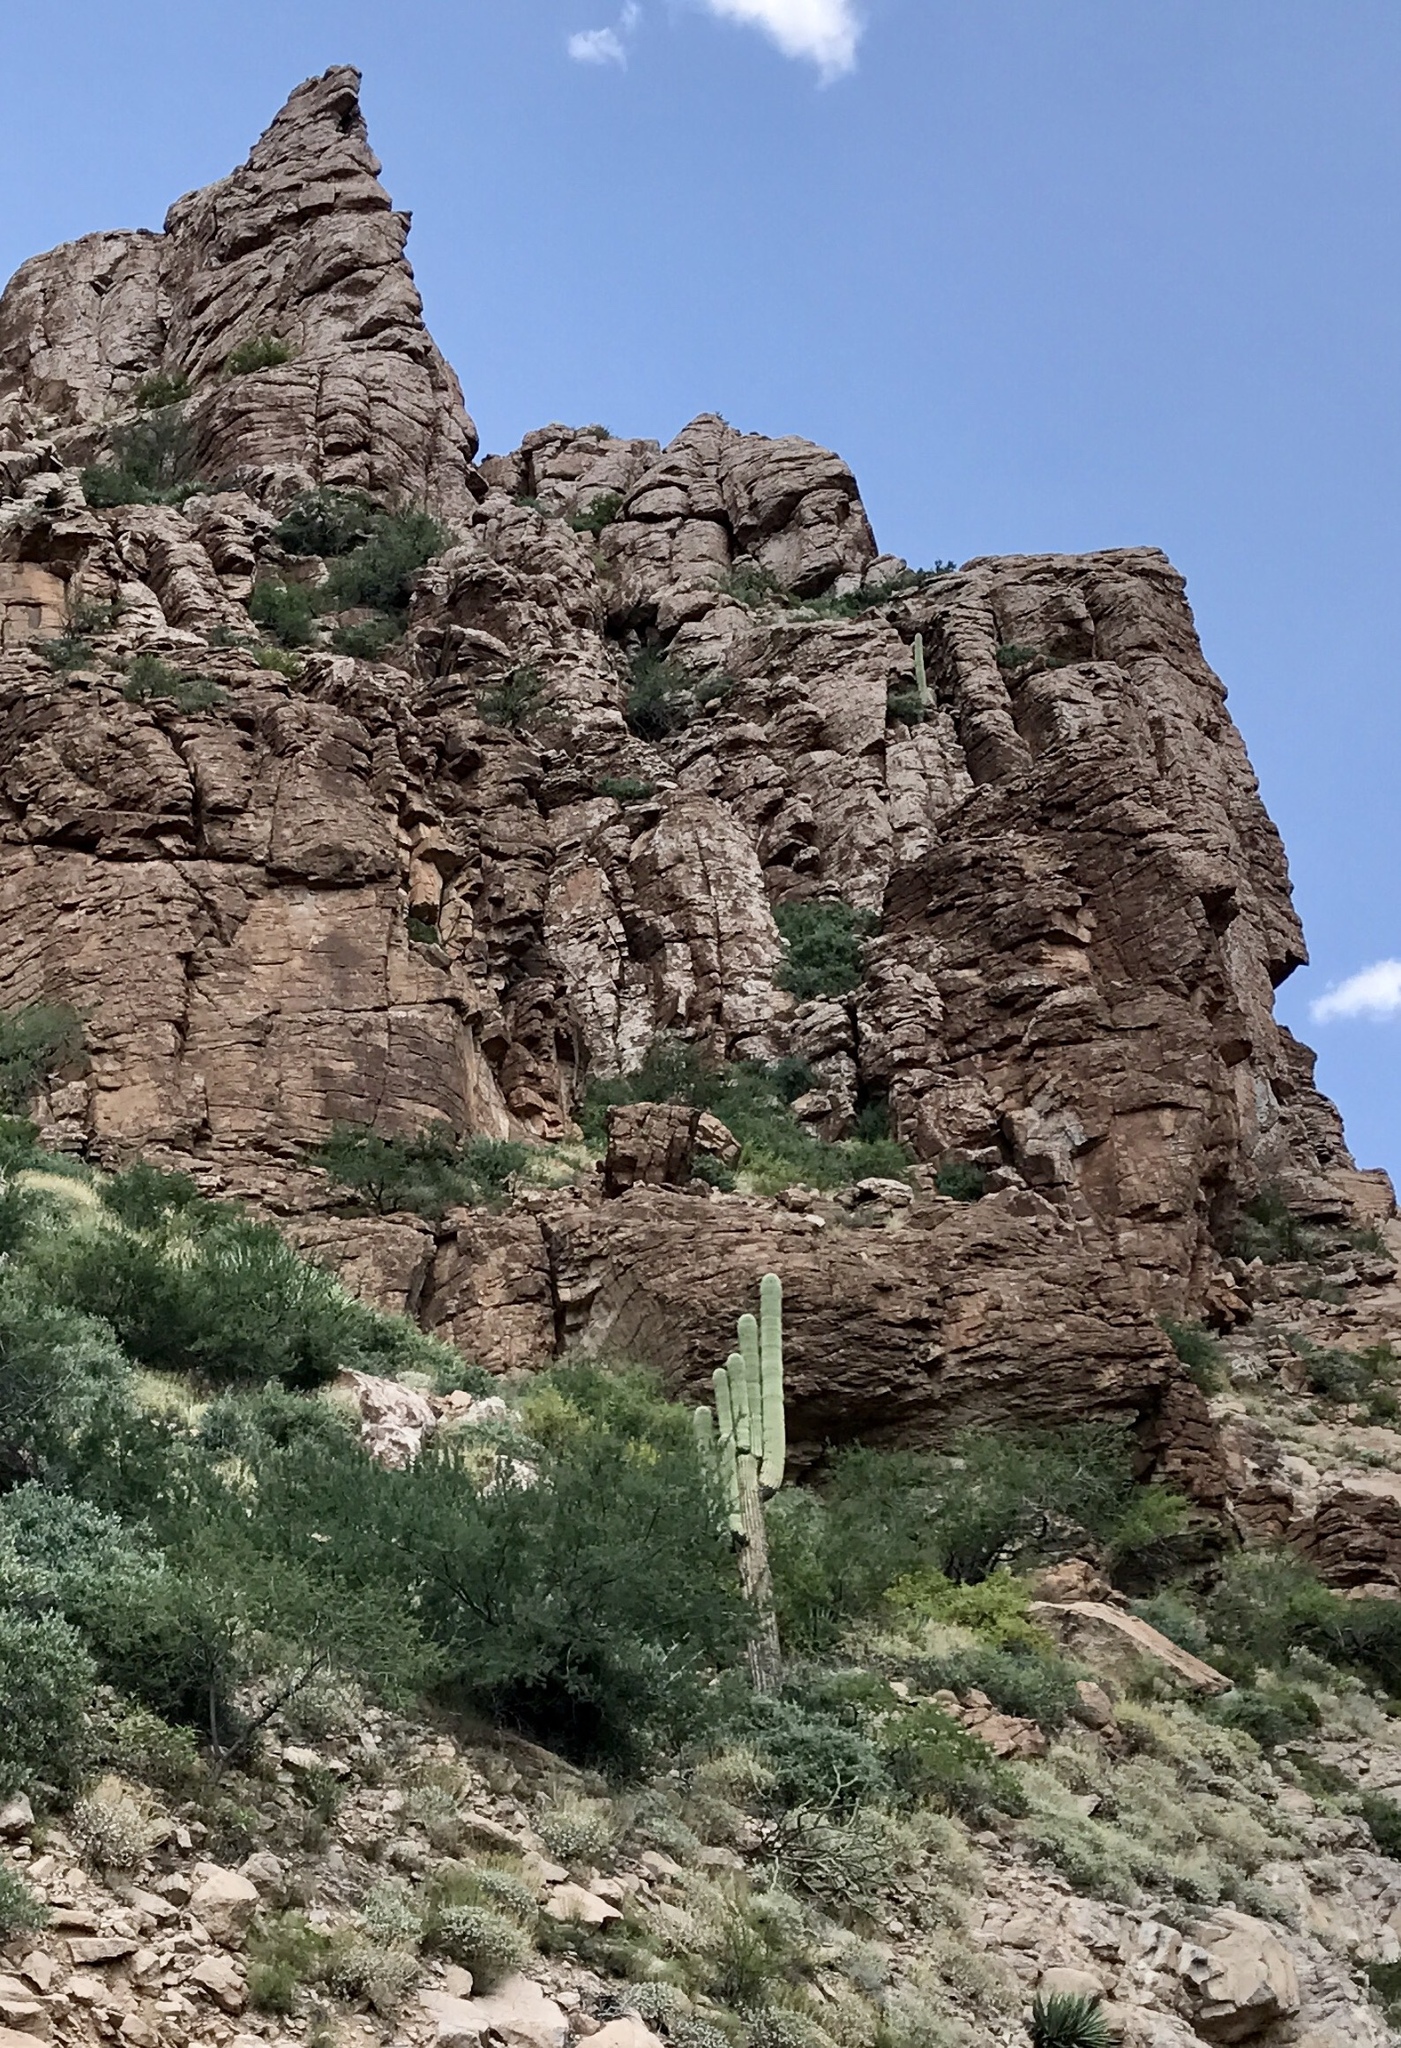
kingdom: Plantae
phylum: Tracheophyta
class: Magnoliopsida
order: Caryophyllales
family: Cactaceae
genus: Carnegiea
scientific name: Carnegiea gigantea
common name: Saguaro
